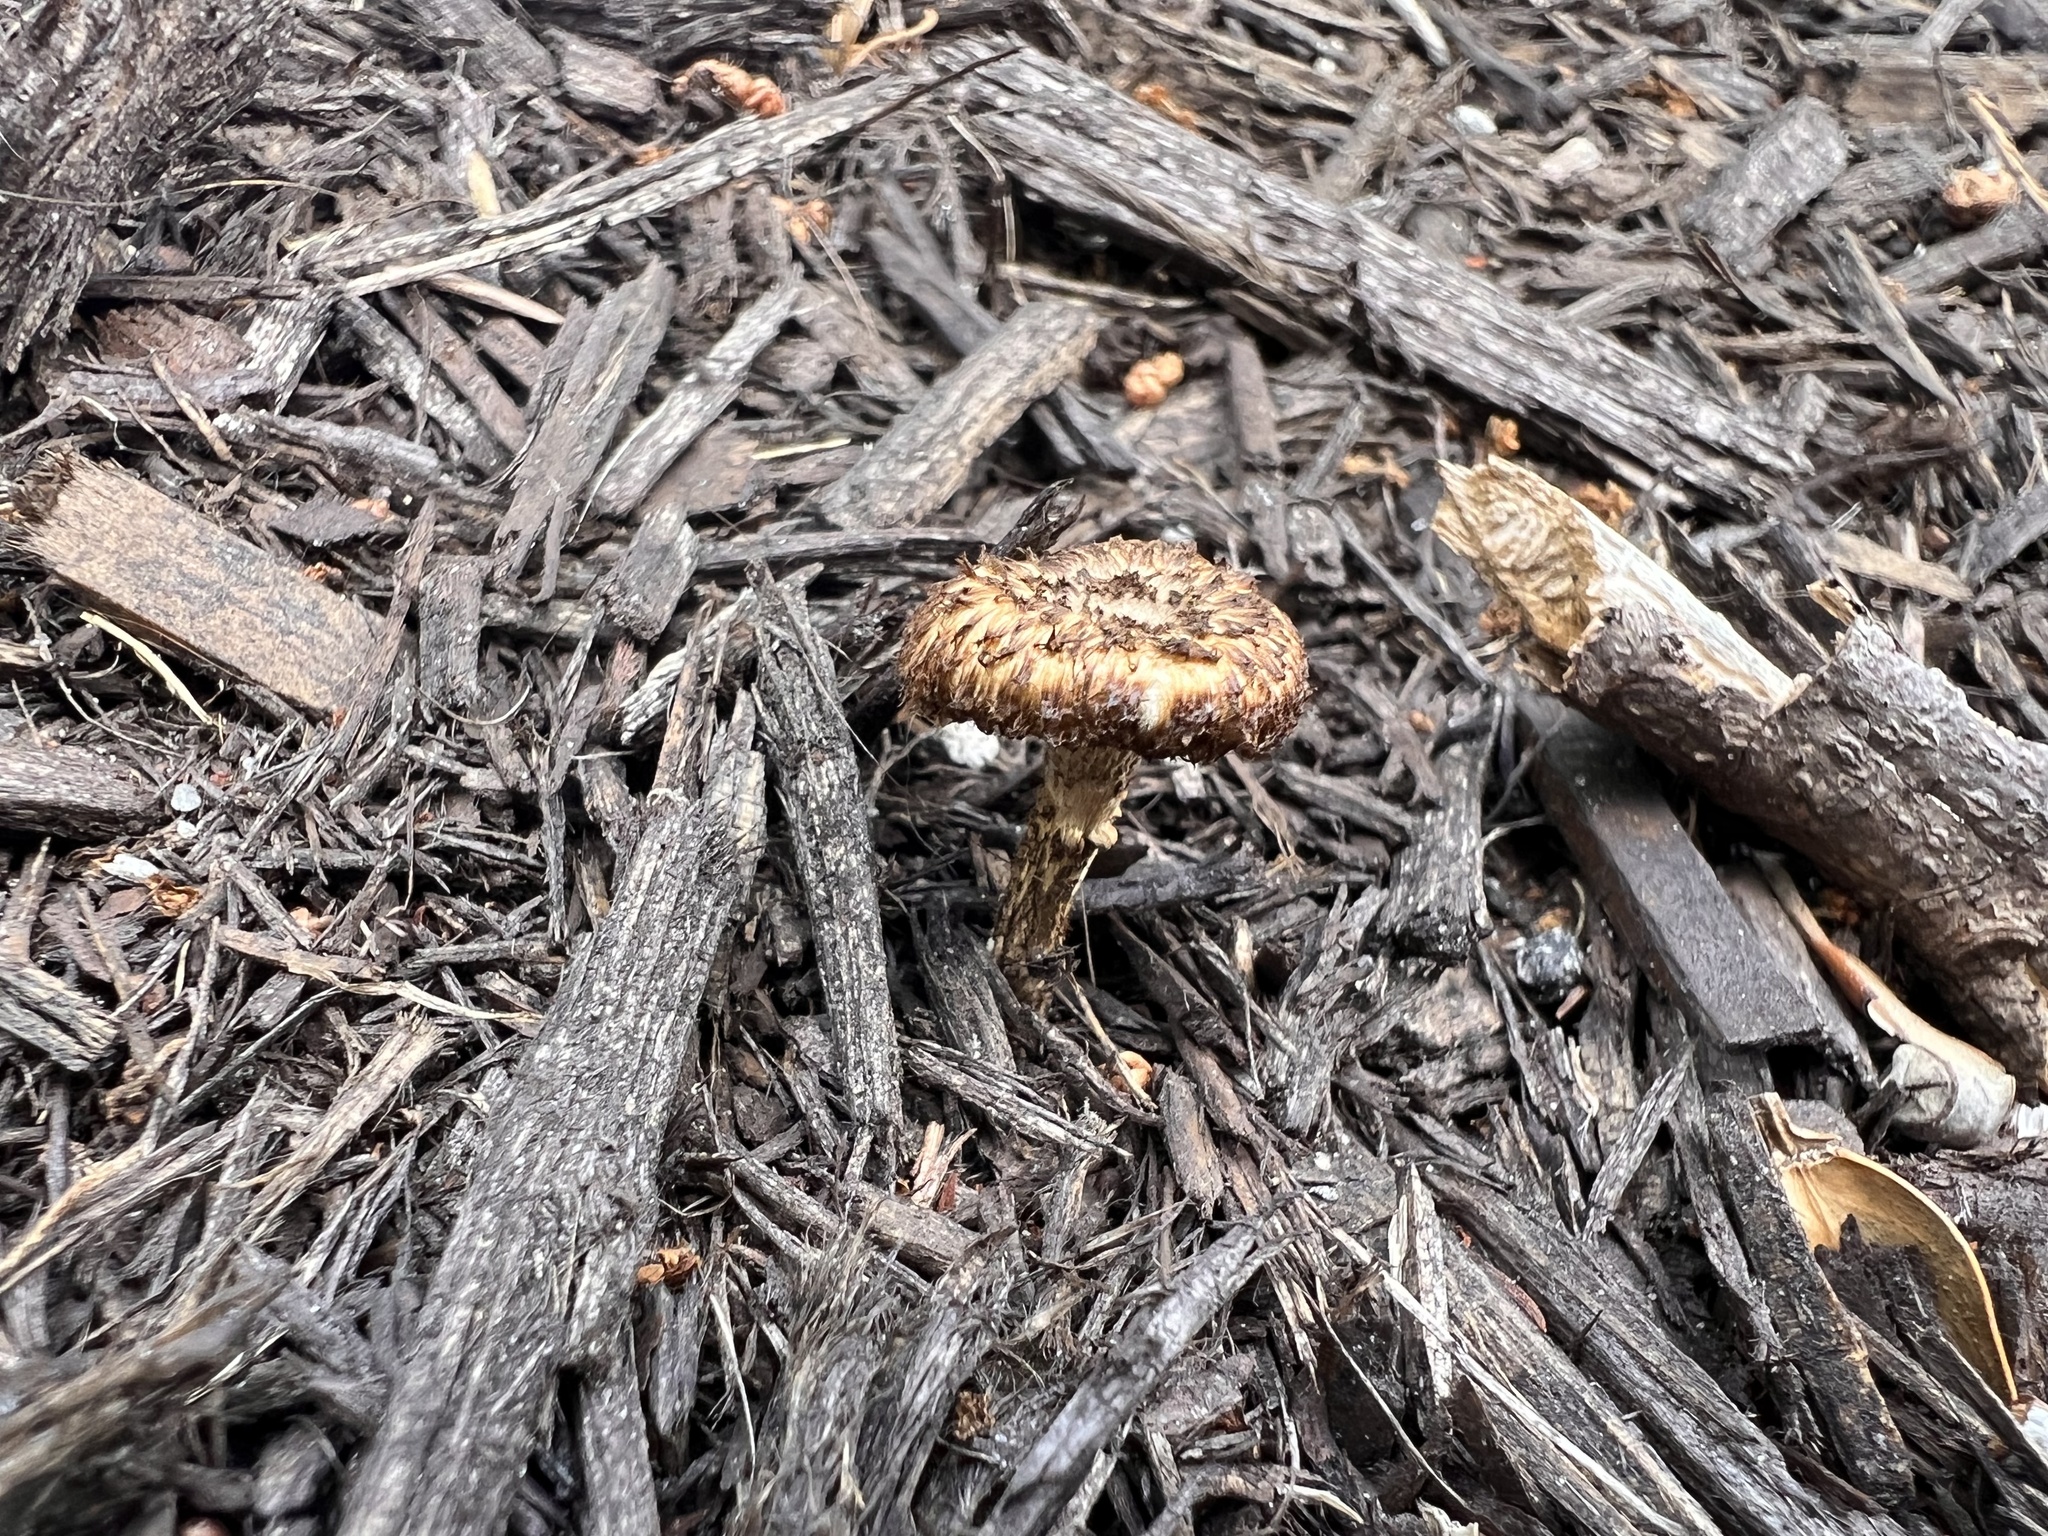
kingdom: Fungi
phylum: Basidiomycota
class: Agaricomycetes
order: Polyporales
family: Polyporaceae
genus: Lentinus
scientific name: Lentinus berteroi
